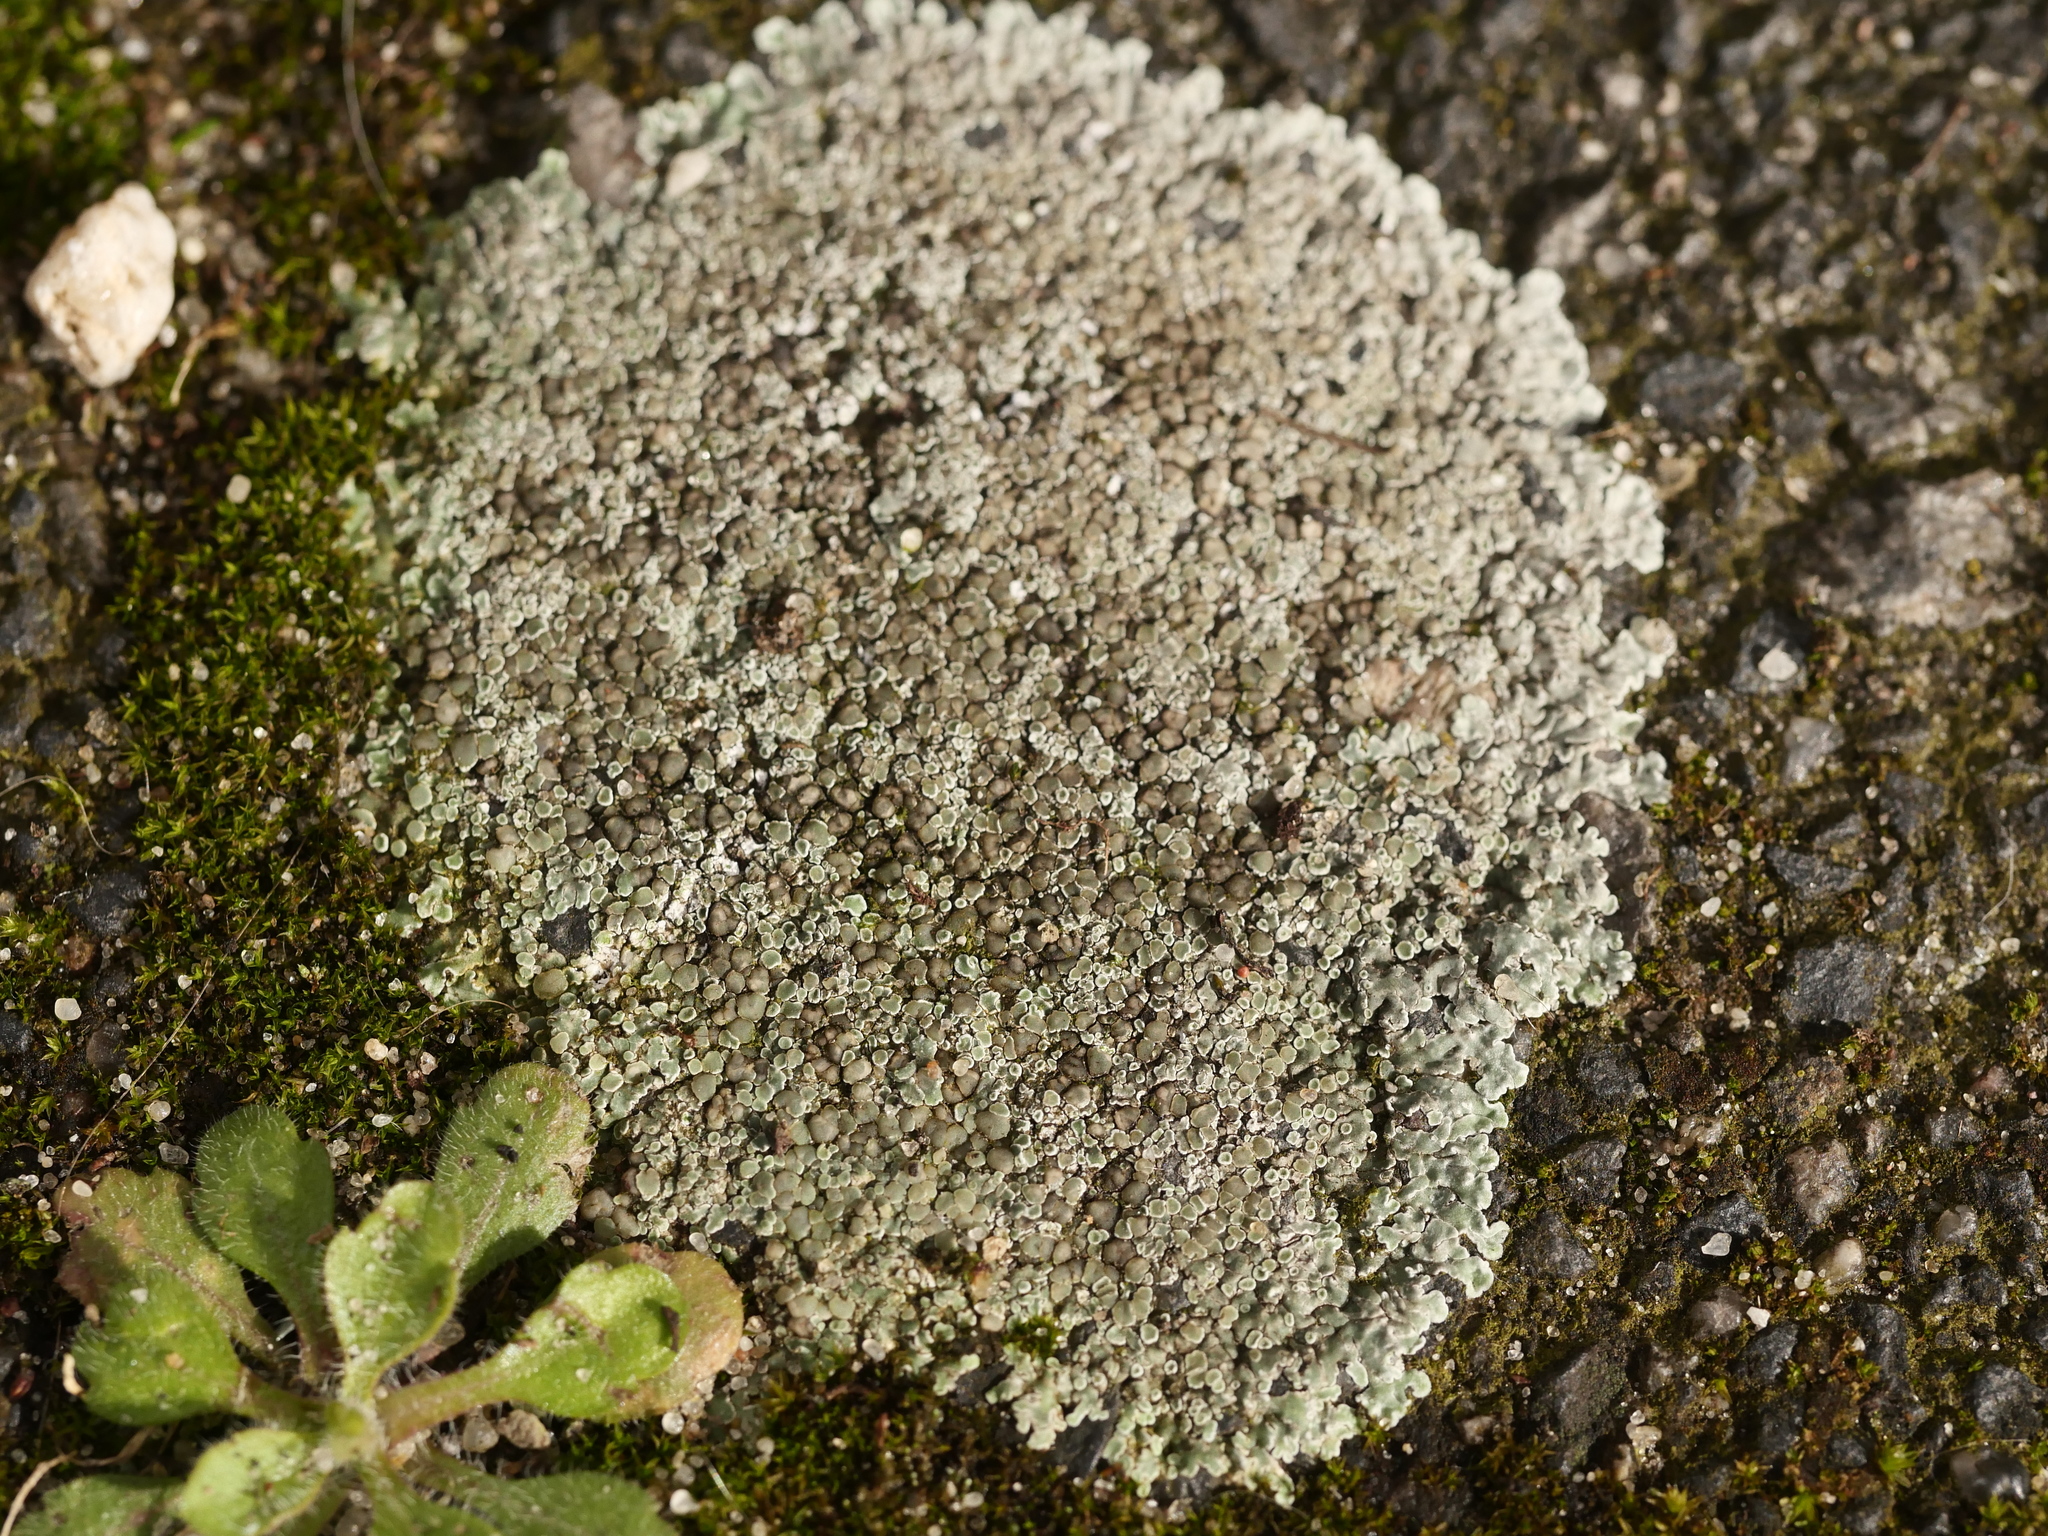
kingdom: Fungi
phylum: Ascomycota
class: Lecanoromycetes
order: Lecanorales
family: Lecanoraceae
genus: Protoparmeliopsis
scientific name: Protoparmeliopsis muralis
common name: Stonewall rim lichen
